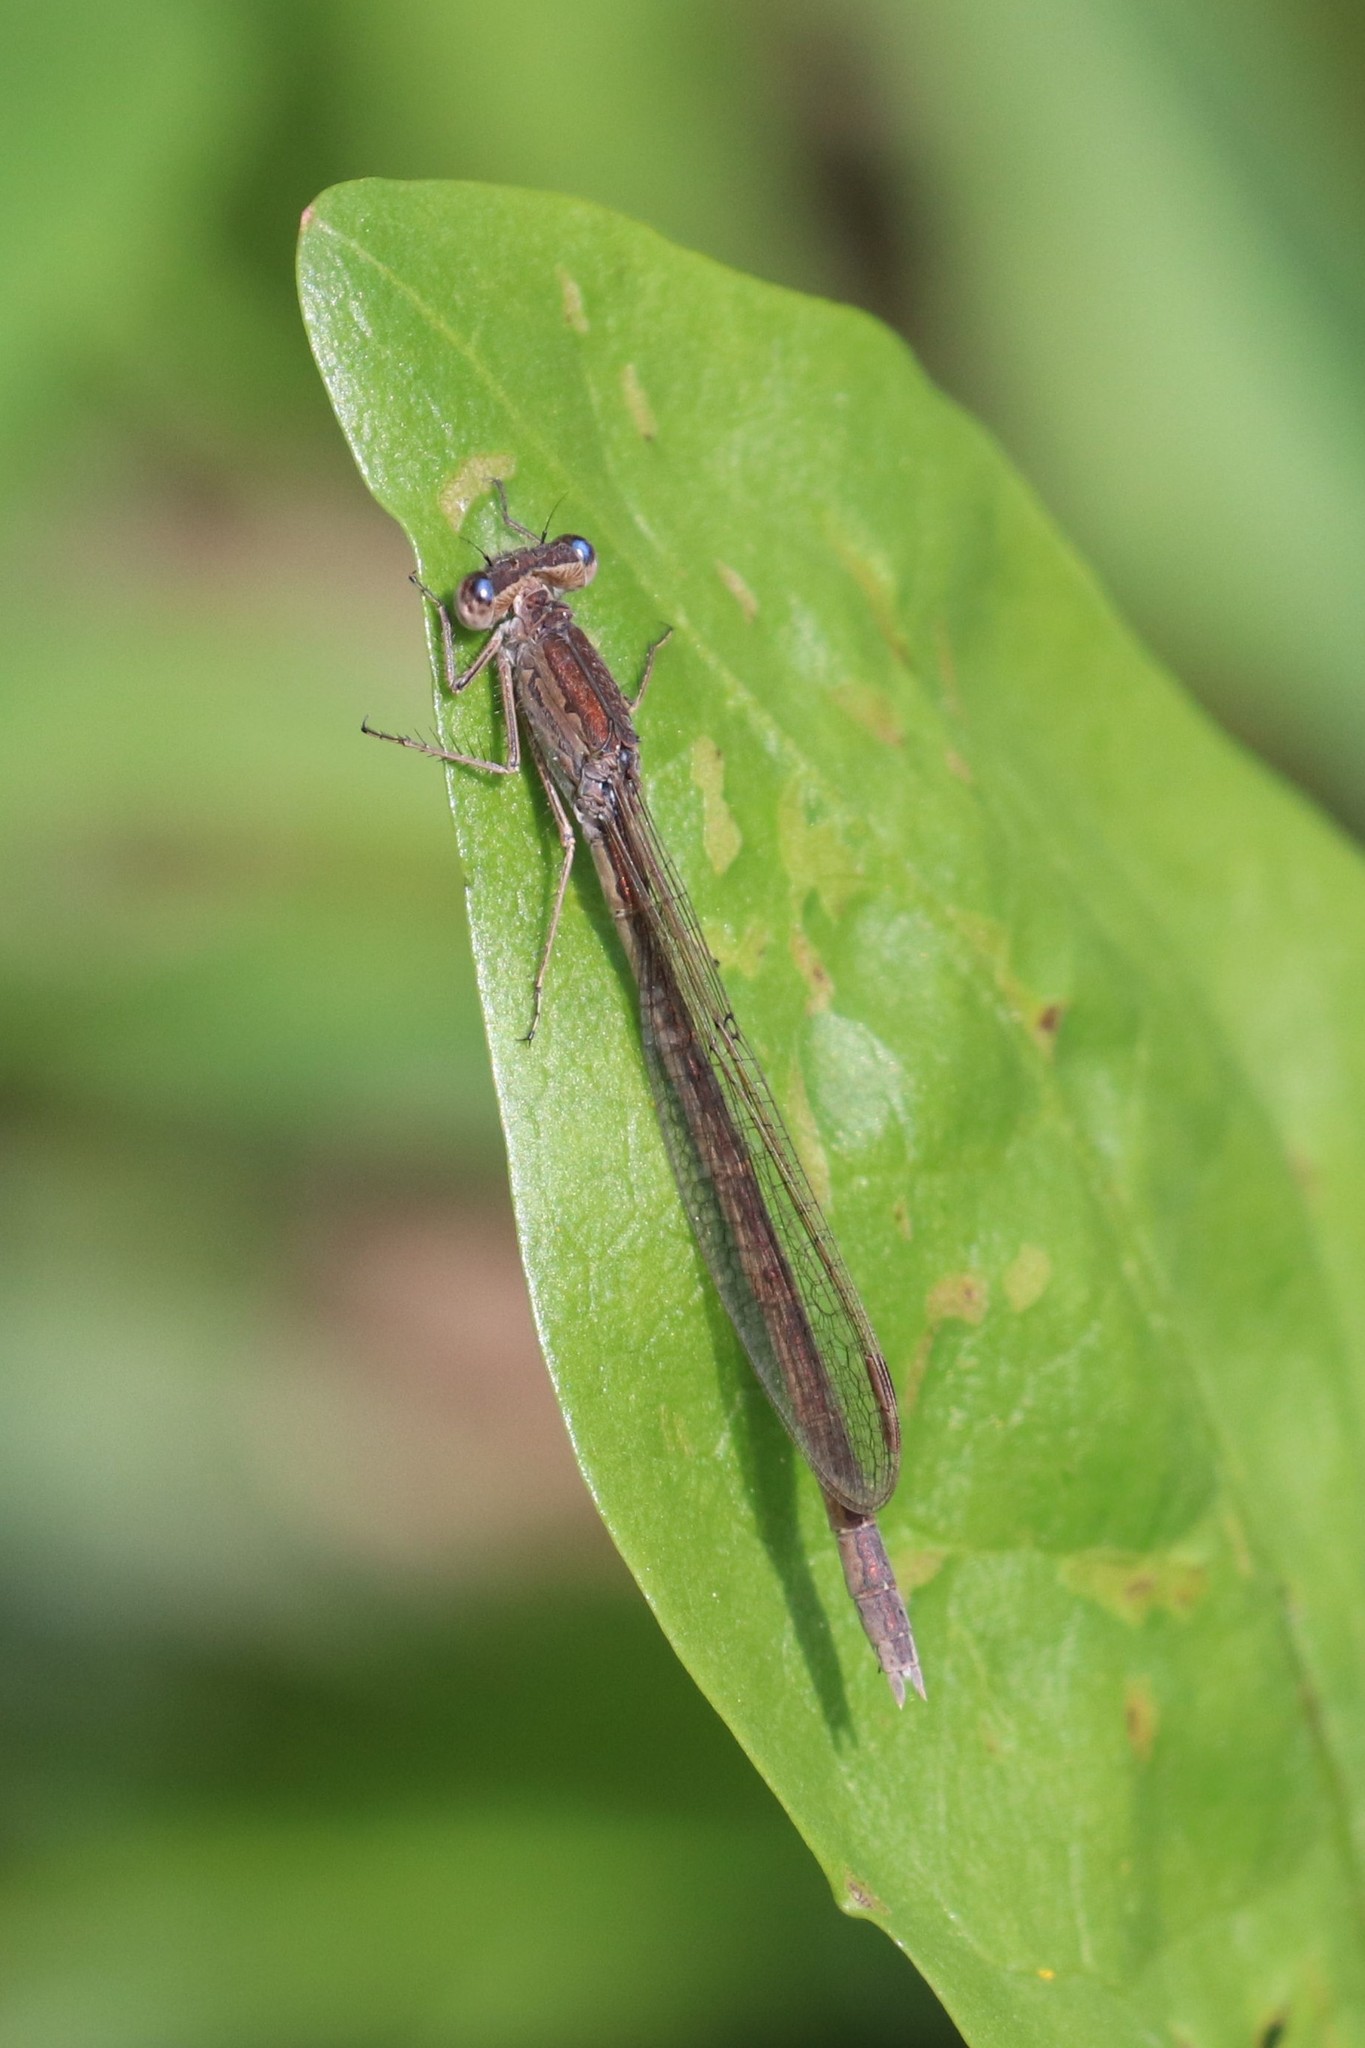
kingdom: Animalia
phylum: Arthropoda
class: Insecta
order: Odonata
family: Lestidae
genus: Sympecma
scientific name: Sympecma paedisca
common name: Siberian winter damsel
